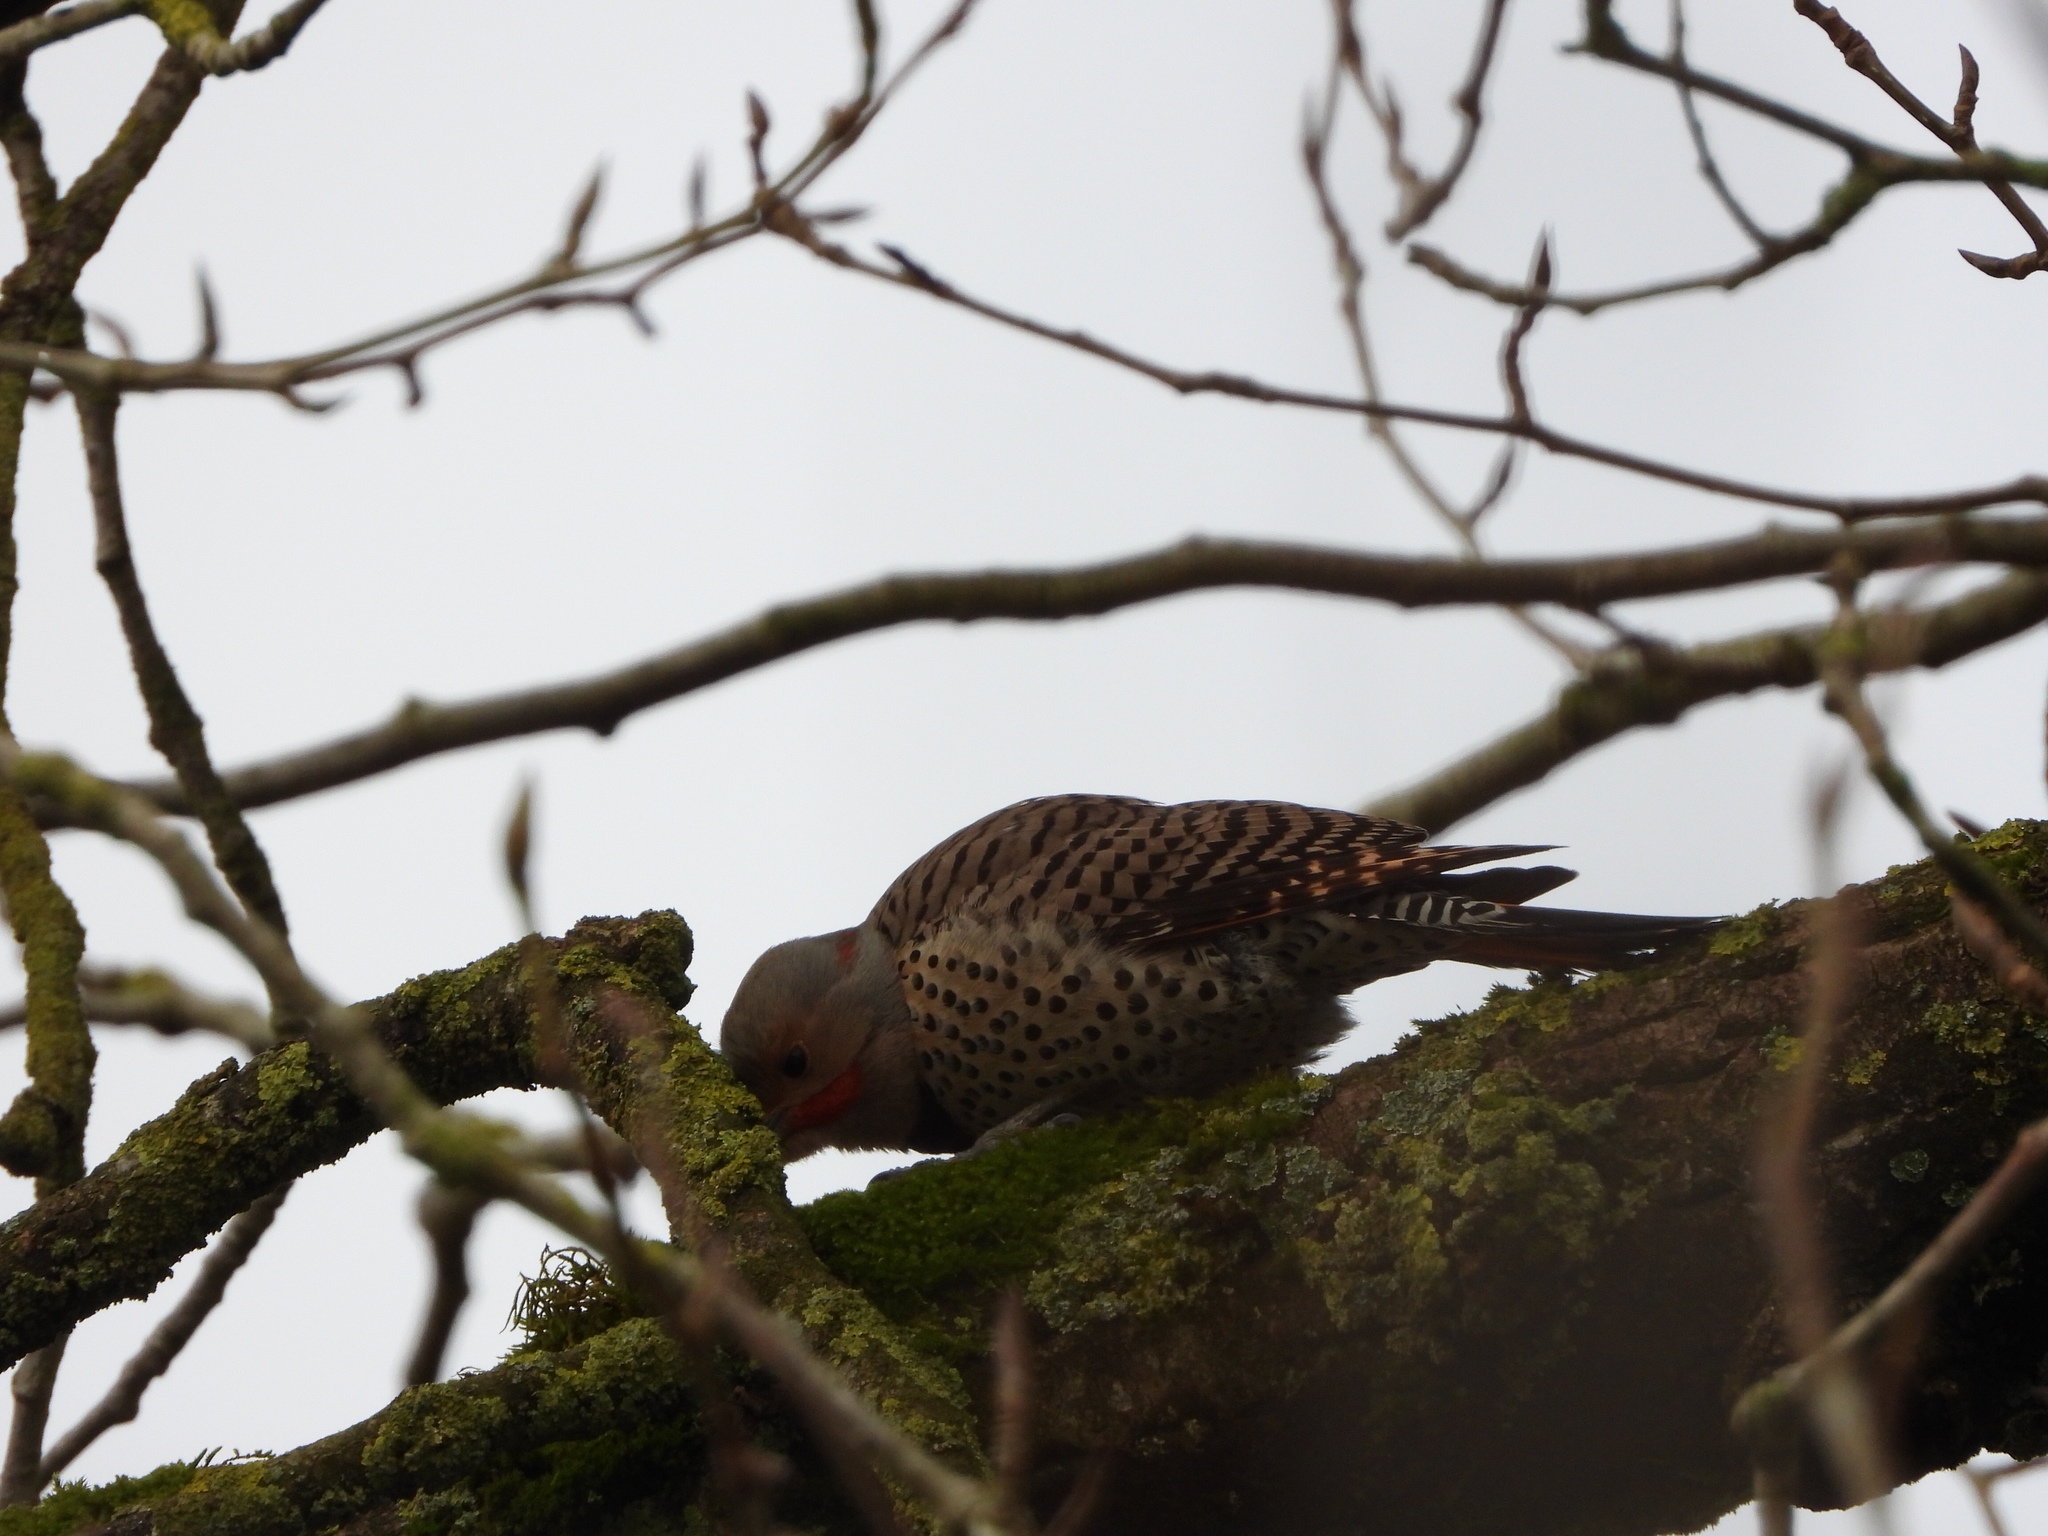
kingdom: Animalia
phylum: Chordata
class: Aves
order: Piciformes
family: Picidae
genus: Colaptes
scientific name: Colaptes
